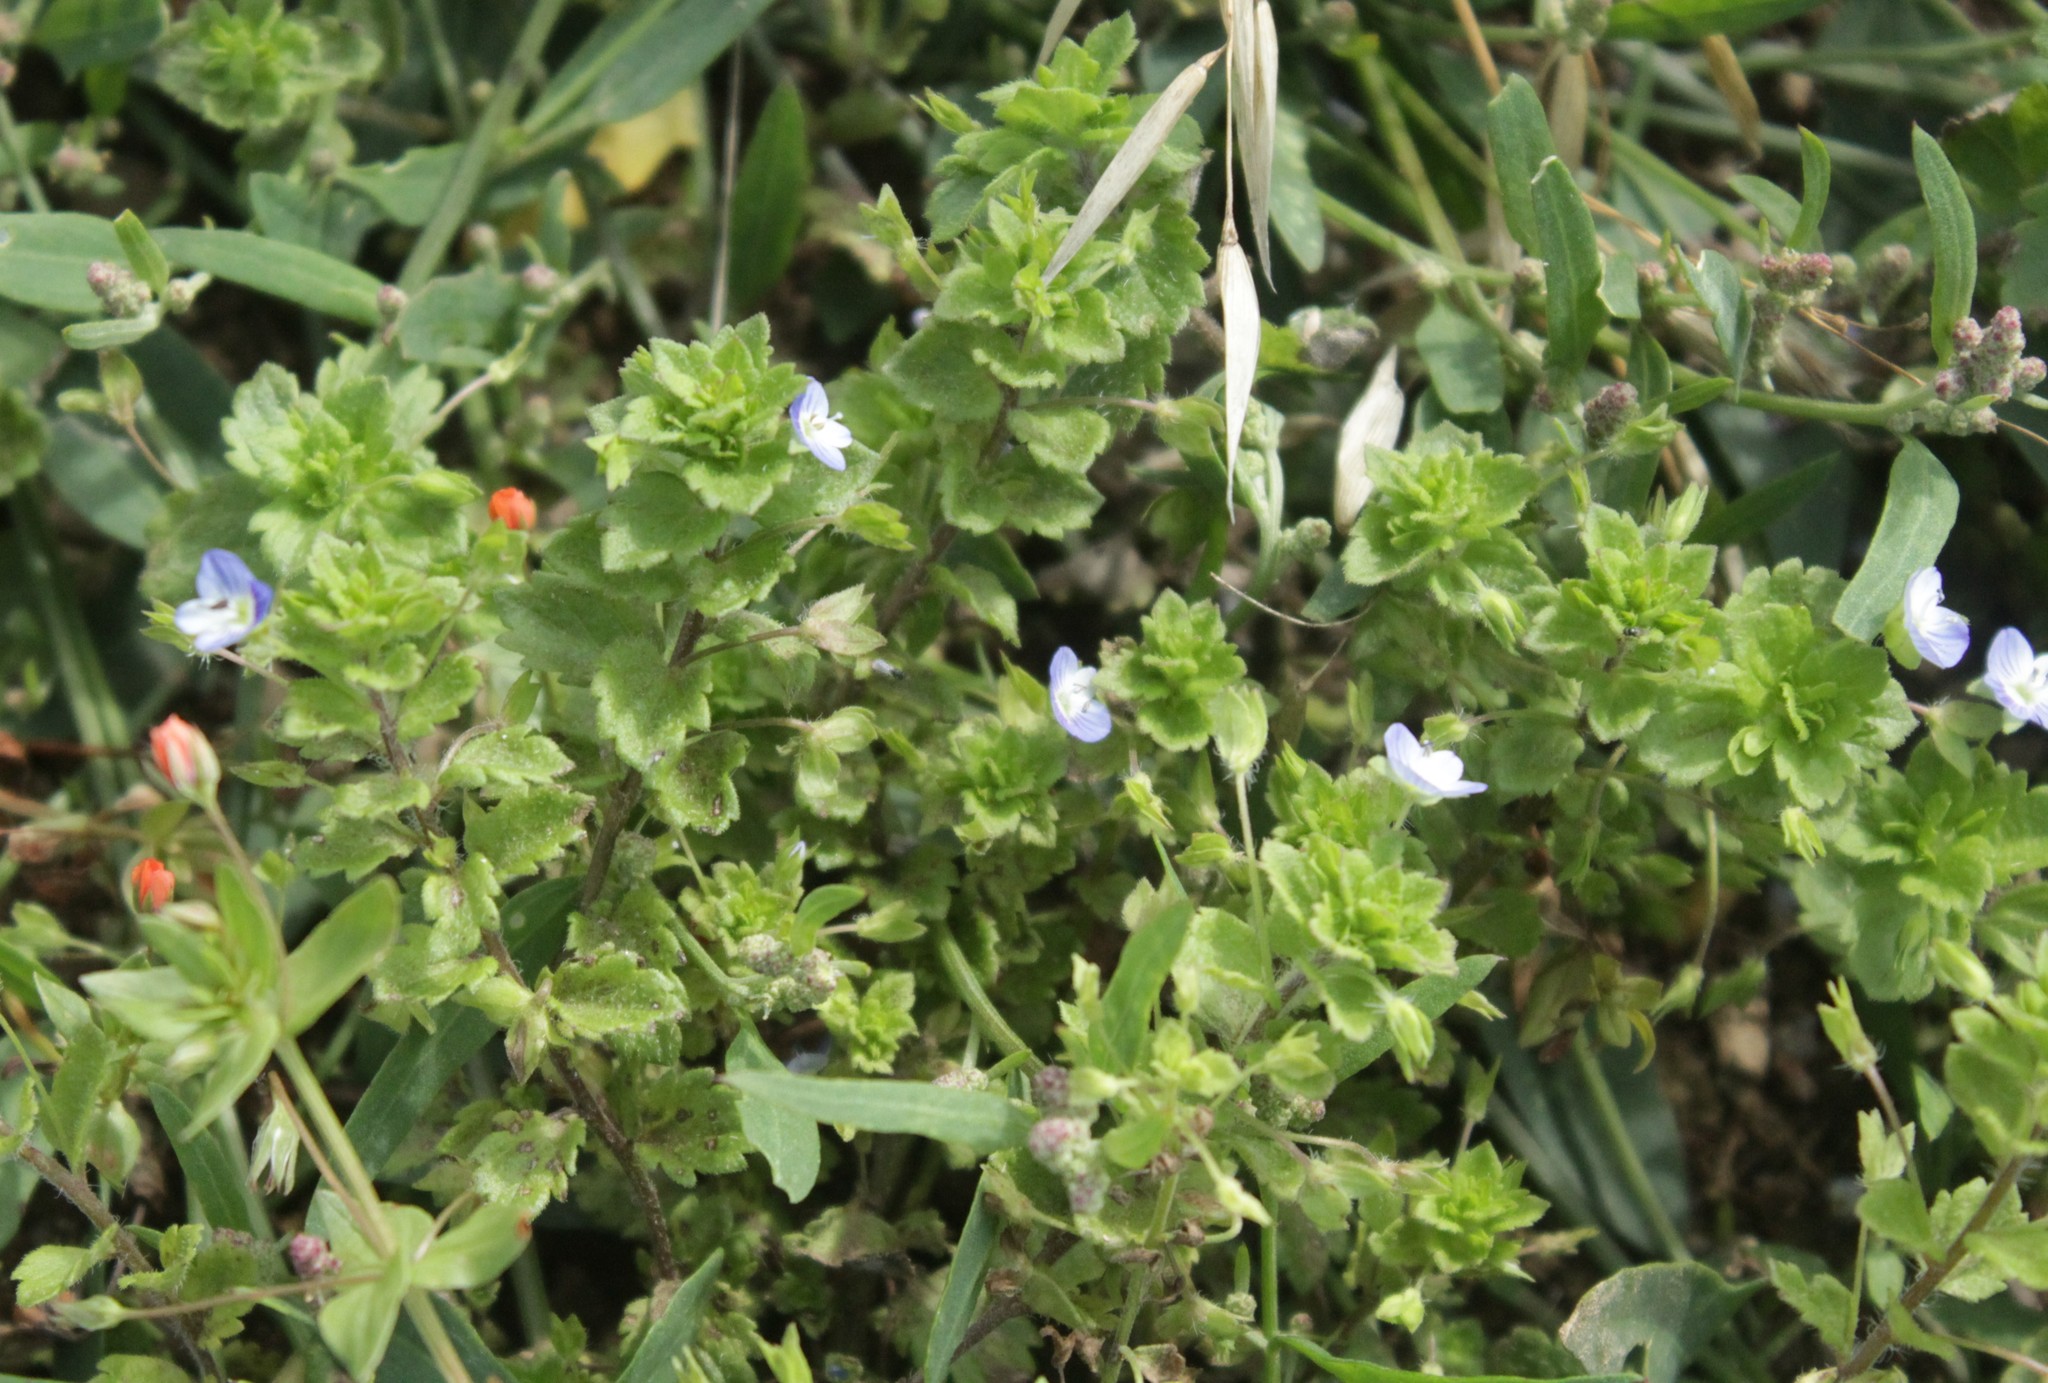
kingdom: Plantae
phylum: Tracheophyta
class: Magnoliopsida
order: Lamiales
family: Plantaginaceae
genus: Veronica
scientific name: Veronica persica
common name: Common field-speedwell
